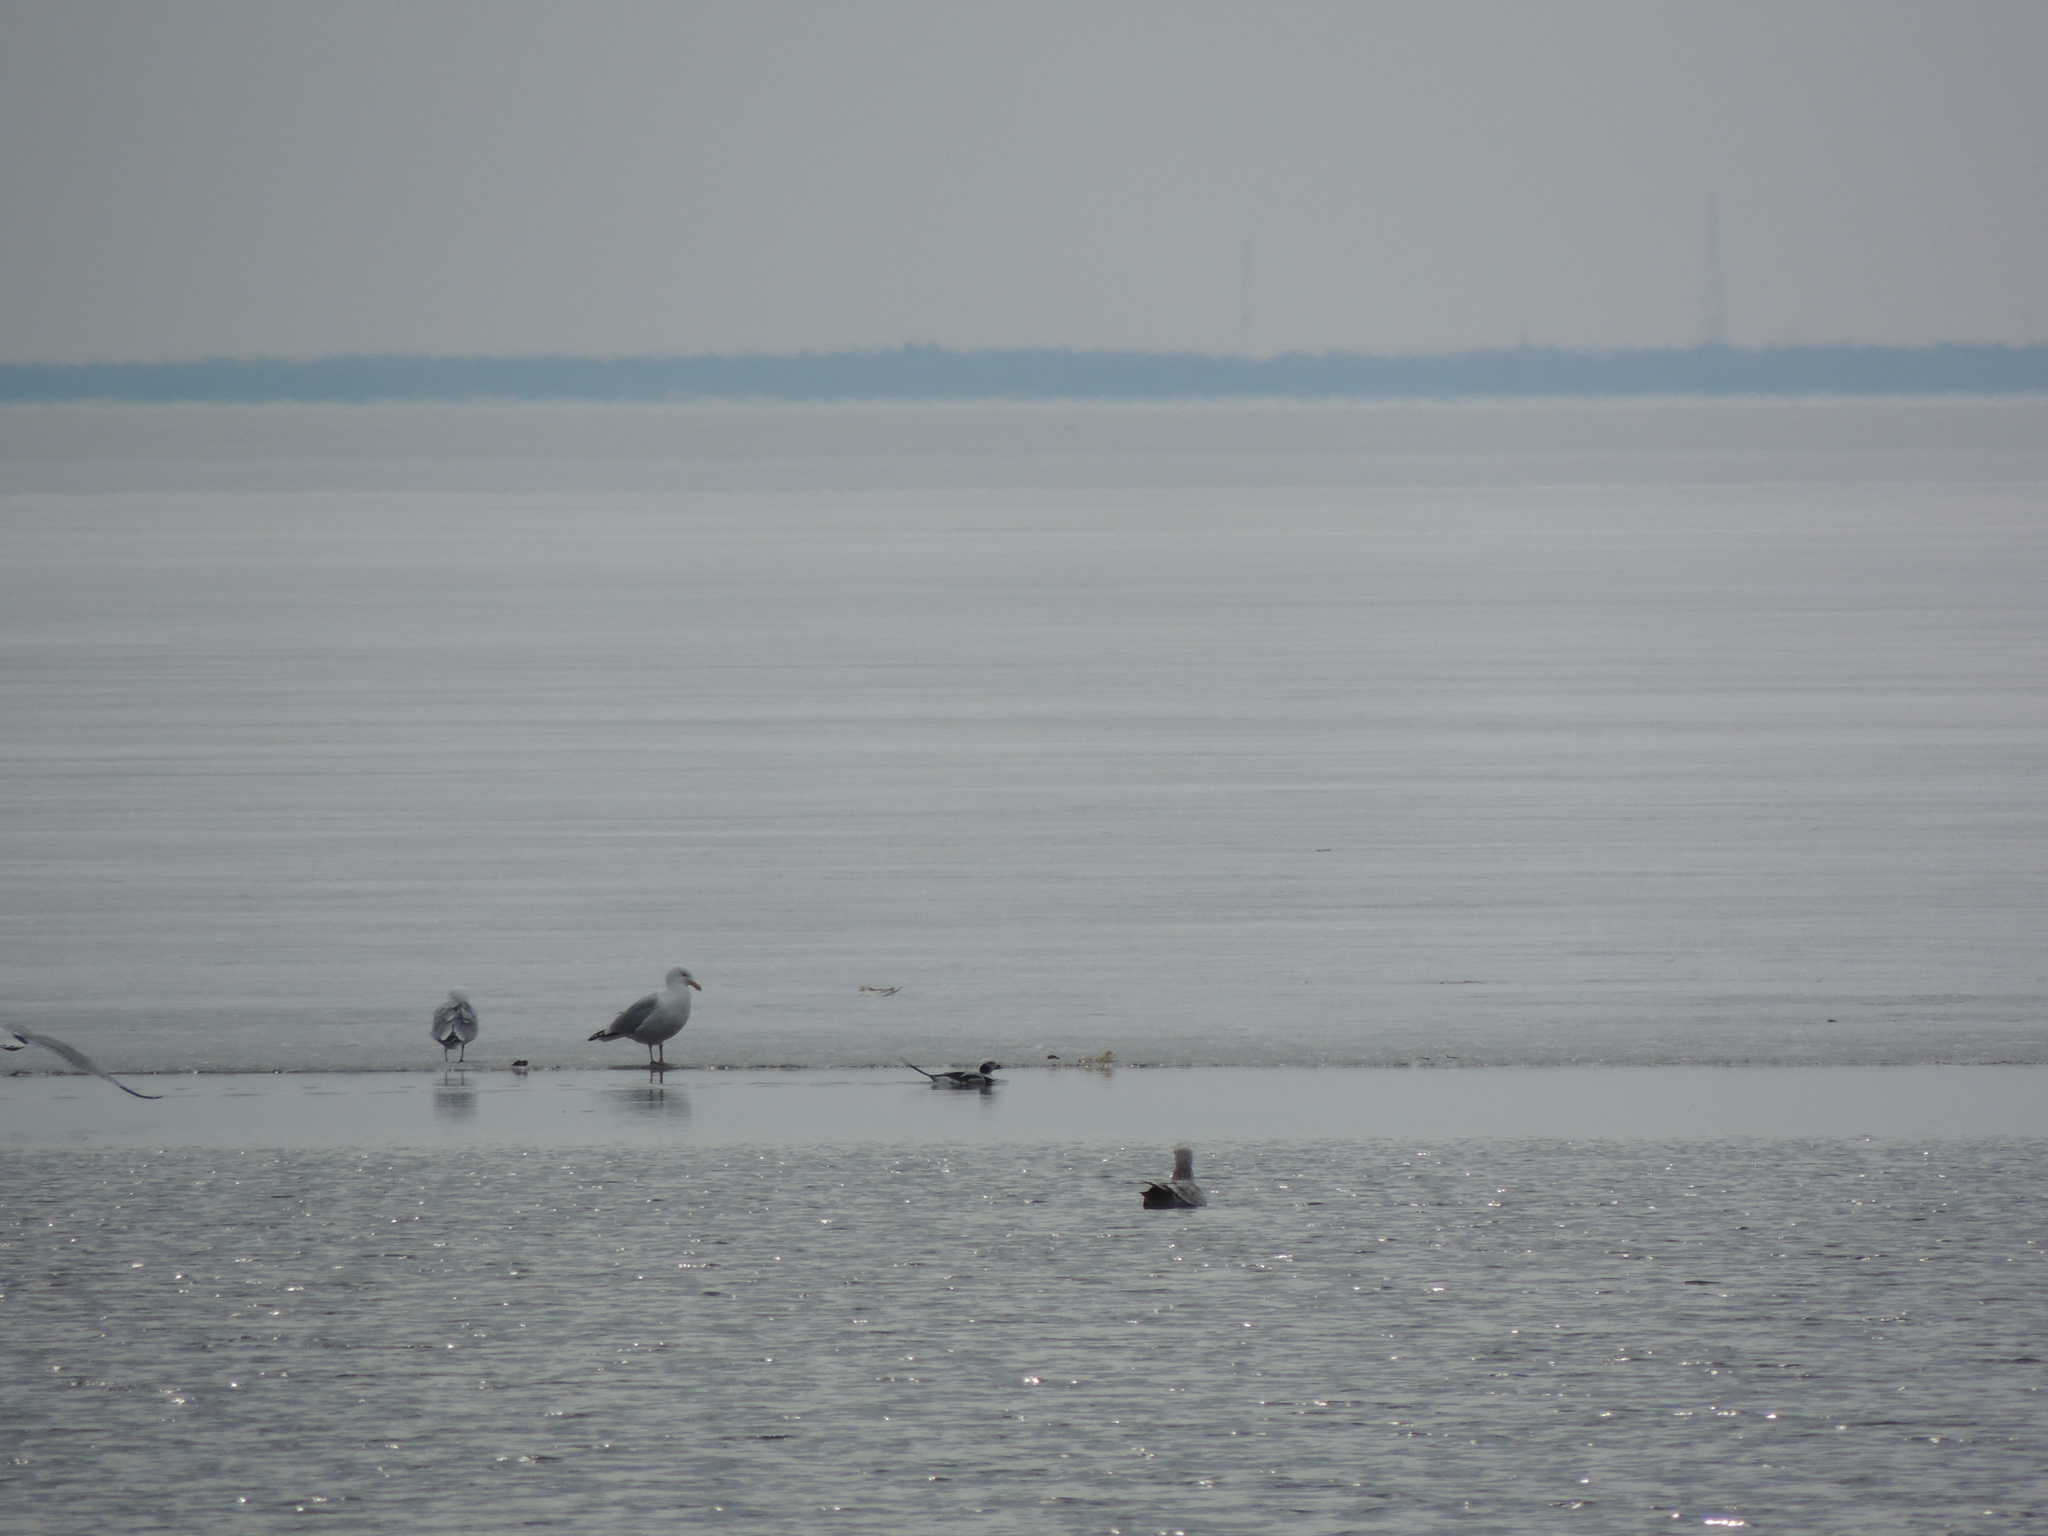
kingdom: Animalia
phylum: Chordata
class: Aves
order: Anseriformes
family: Anatidae
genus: Clangula
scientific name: Clangula hyemalis
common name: Long-tailed duck
